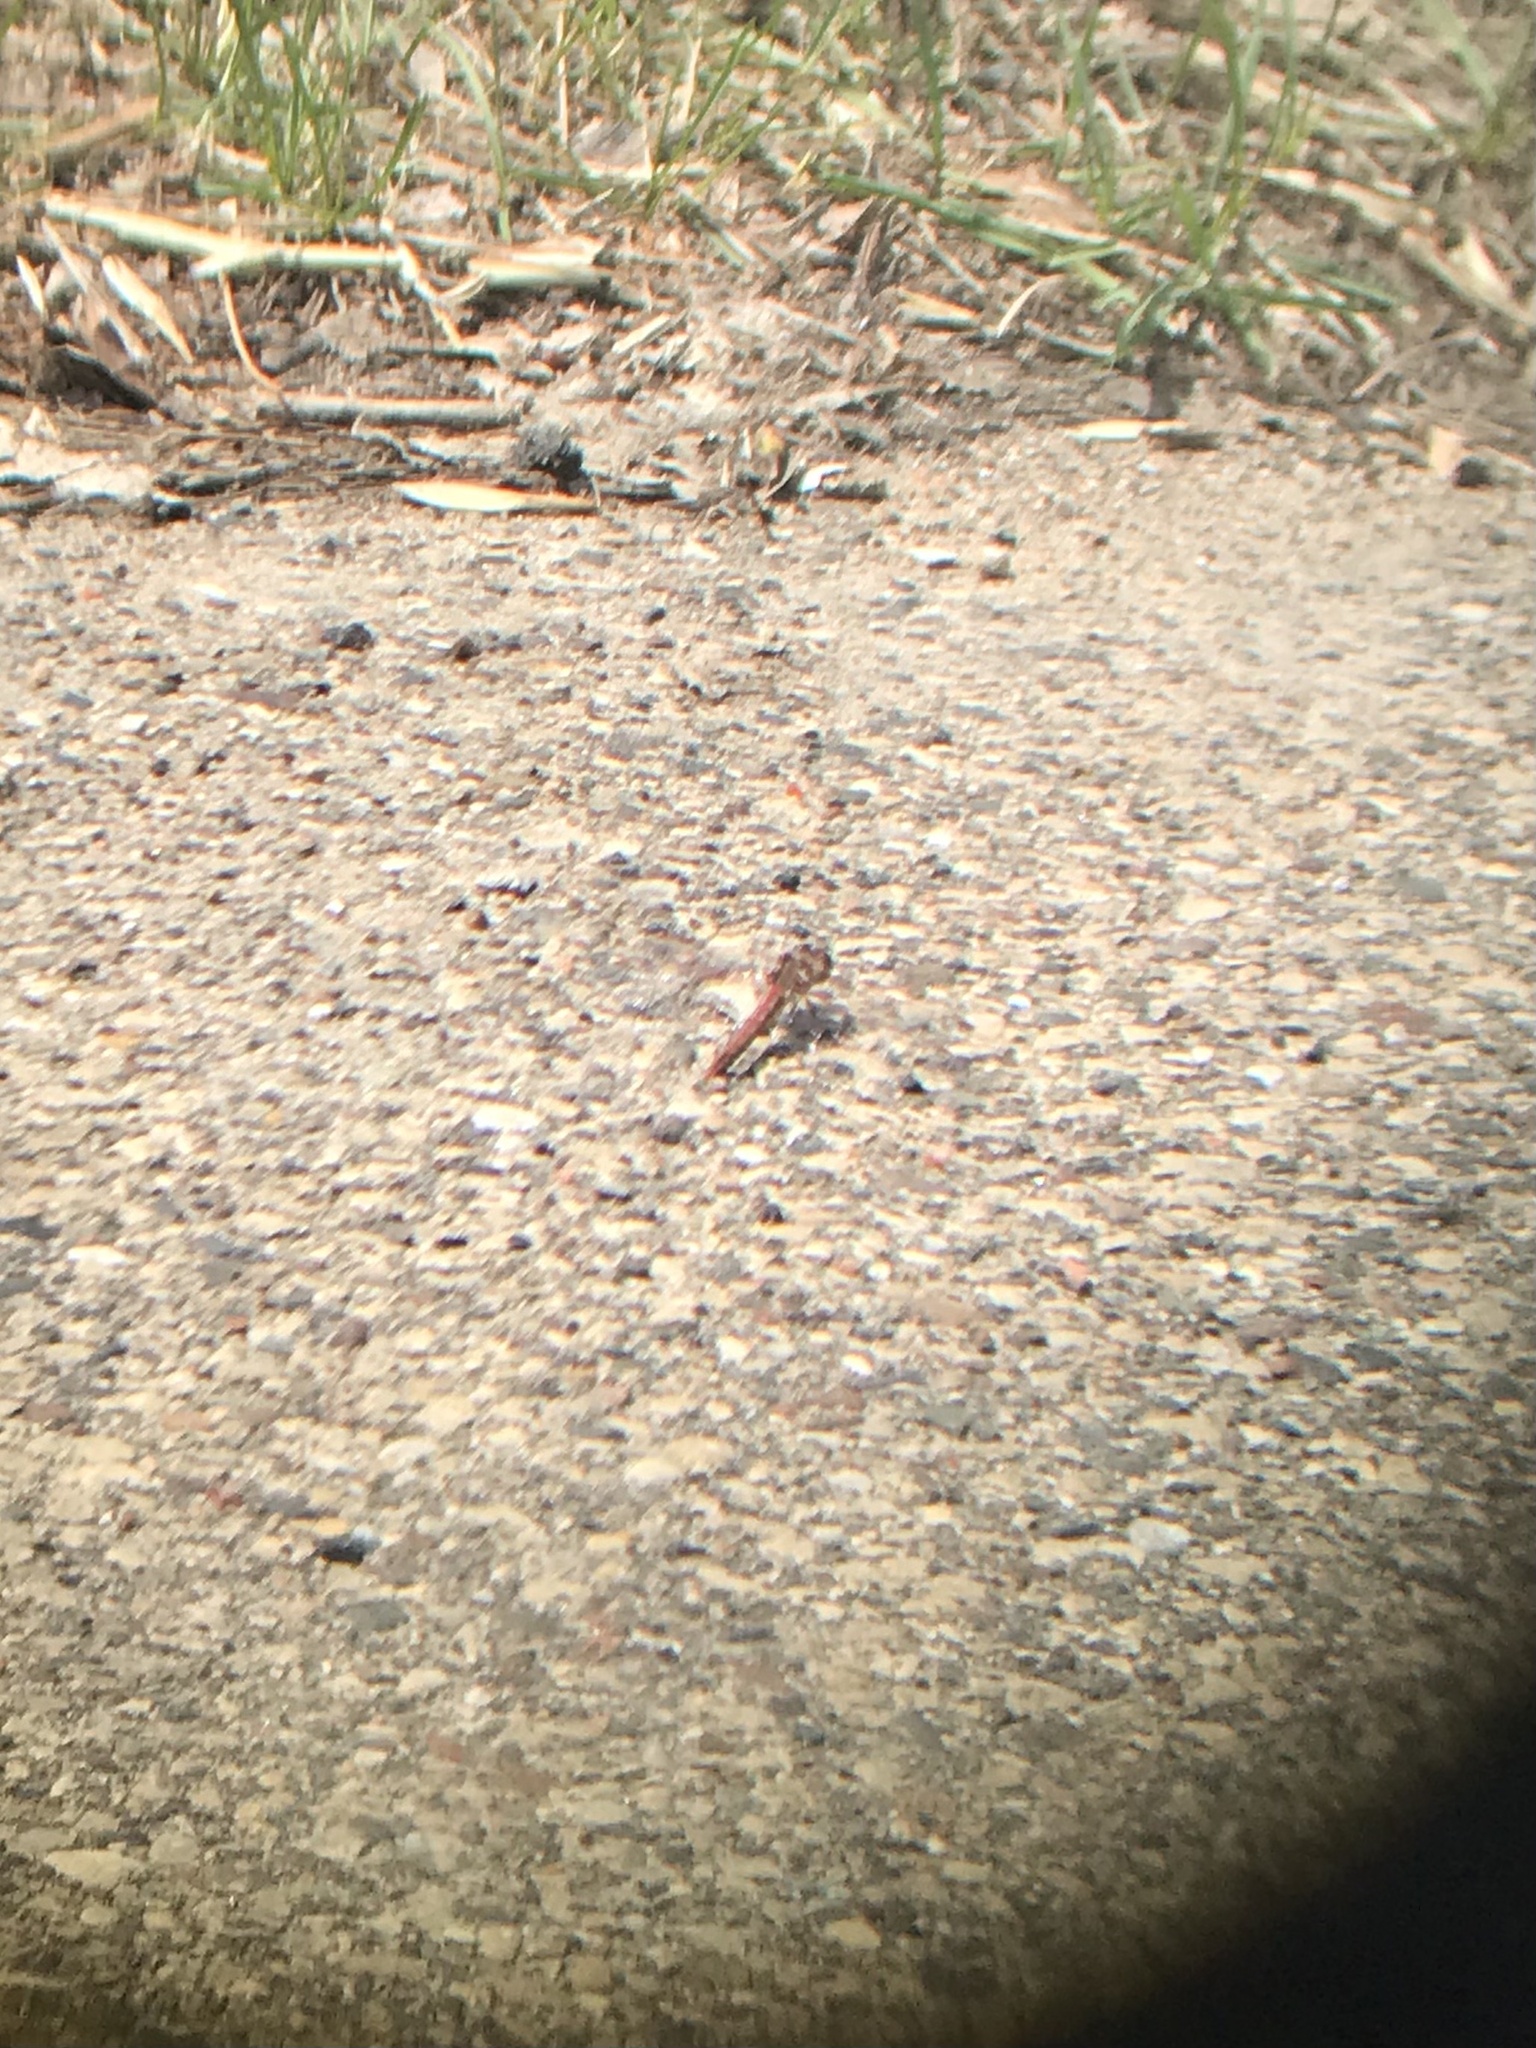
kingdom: Animalia
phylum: Arthropoda
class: Insecta
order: Odonata
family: Libellulidae
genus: Sympetrum
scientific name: Sympetrum corruptum
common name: Variegated meadowhawk
